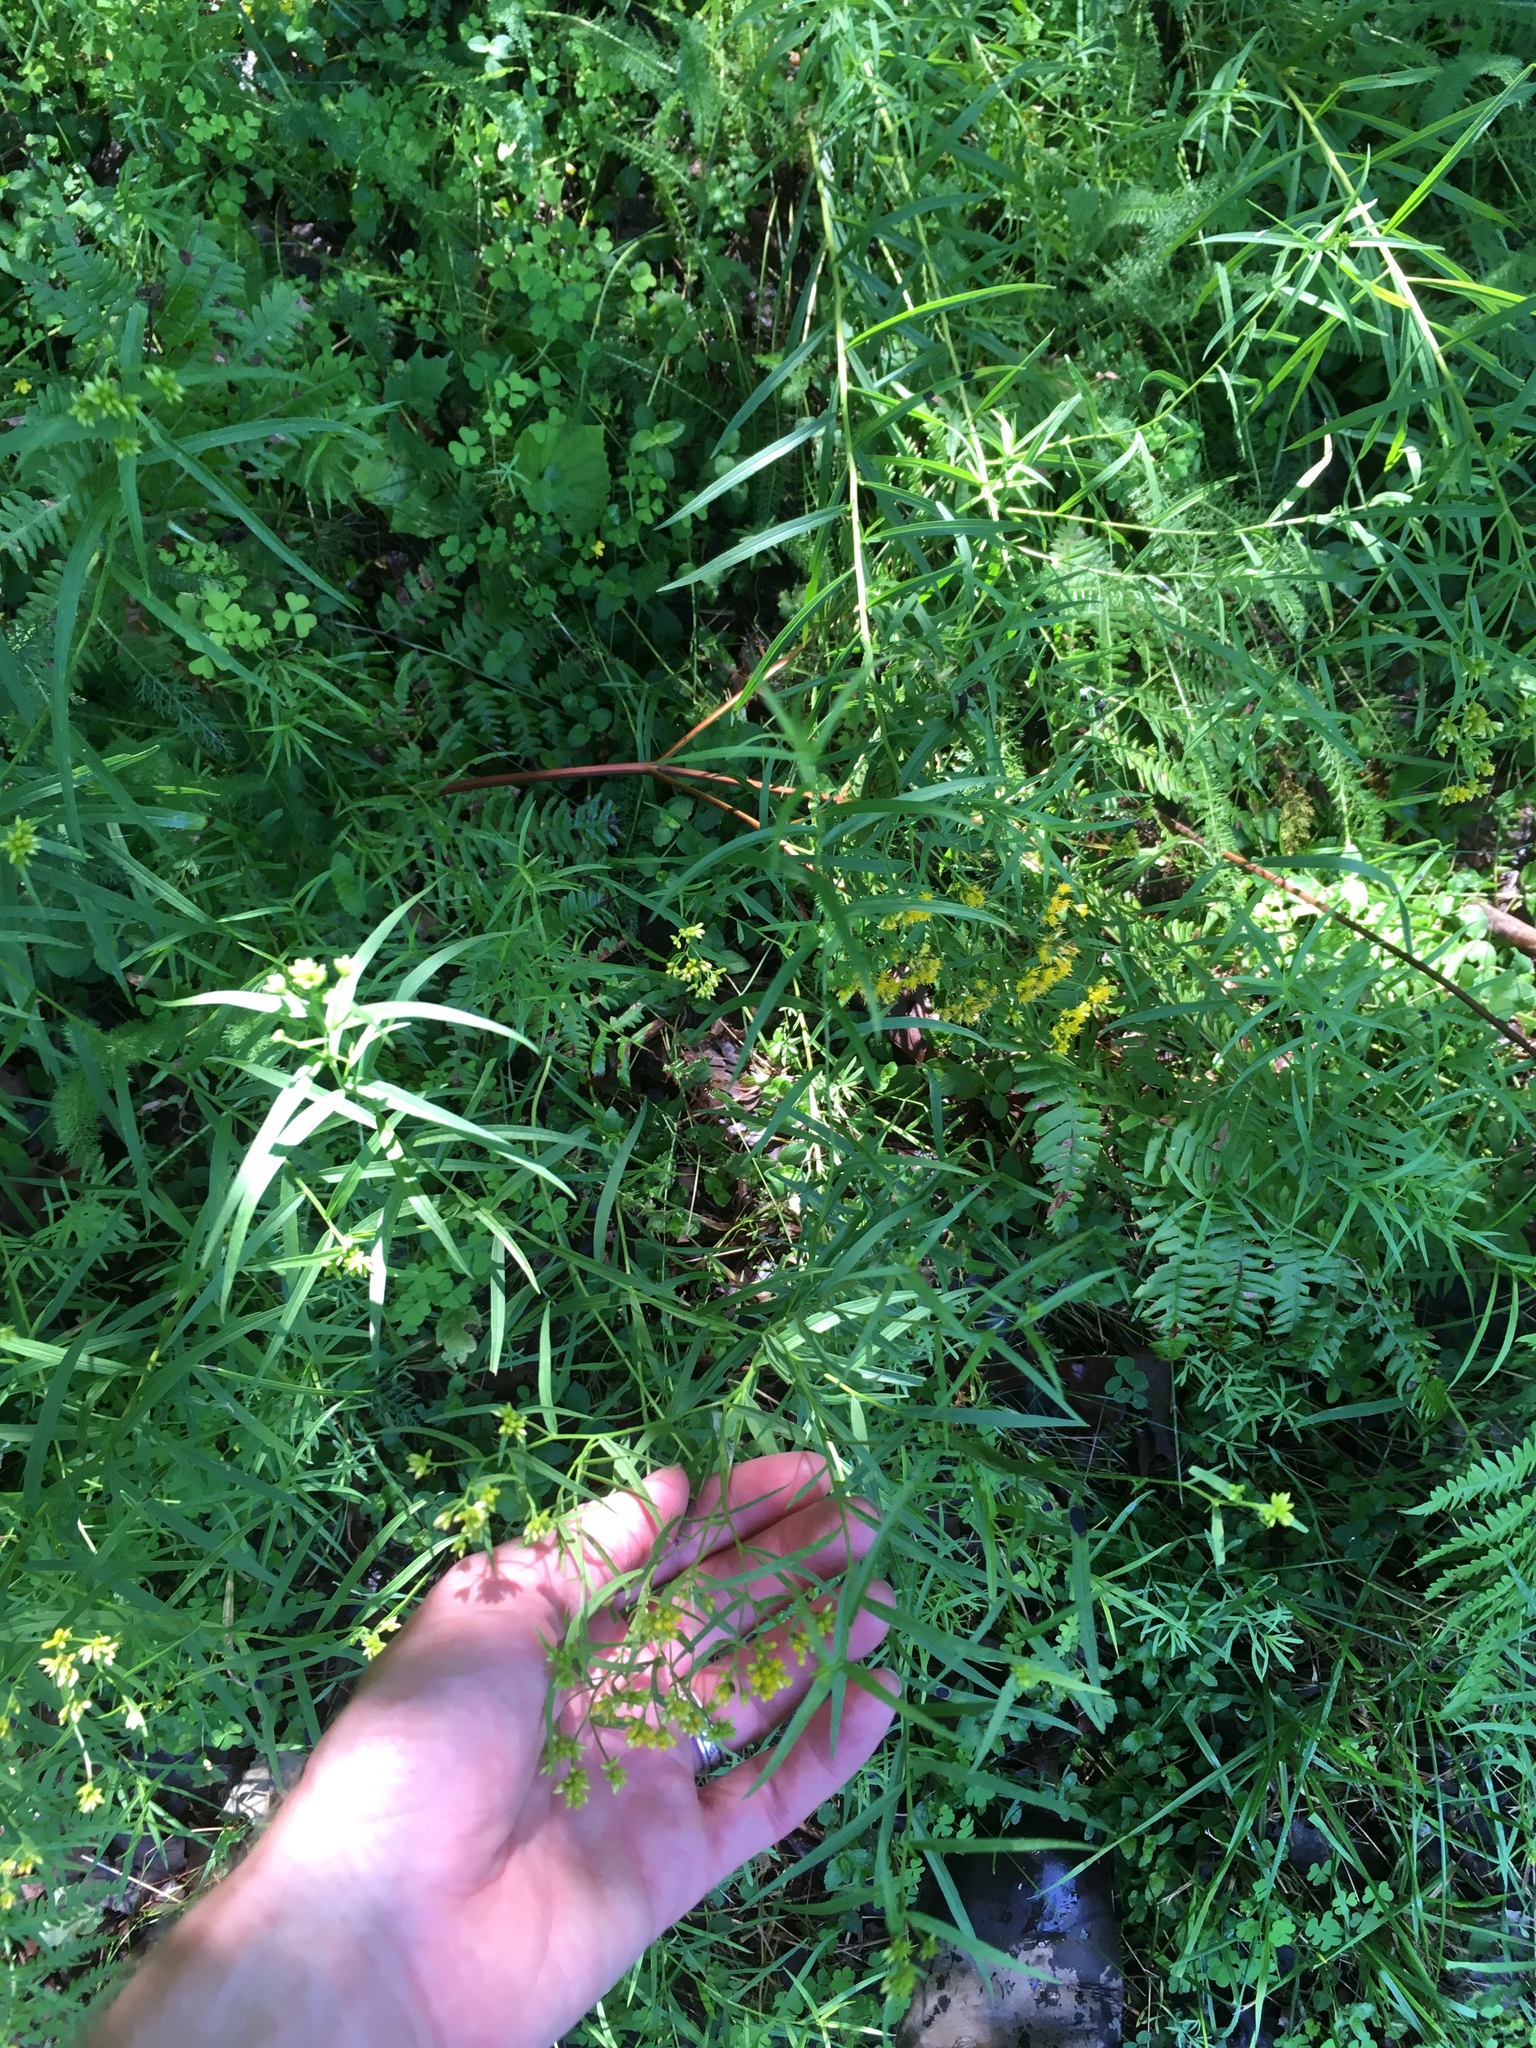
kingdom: Plantae
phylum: Tracheophyta
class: Magnoliopsida
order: Asterales
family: Asteraceae
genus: Euthamia
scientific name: Euthamia graminifolia
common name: Common goldentop
